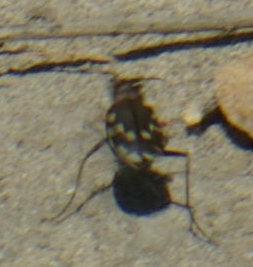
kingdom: Animalia
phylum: Arthropoda
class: Insecta
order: Coleoptera
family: Carabidae
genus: Cicindela
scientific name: Cicindela repanda
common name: Bronzed tiger beetle
